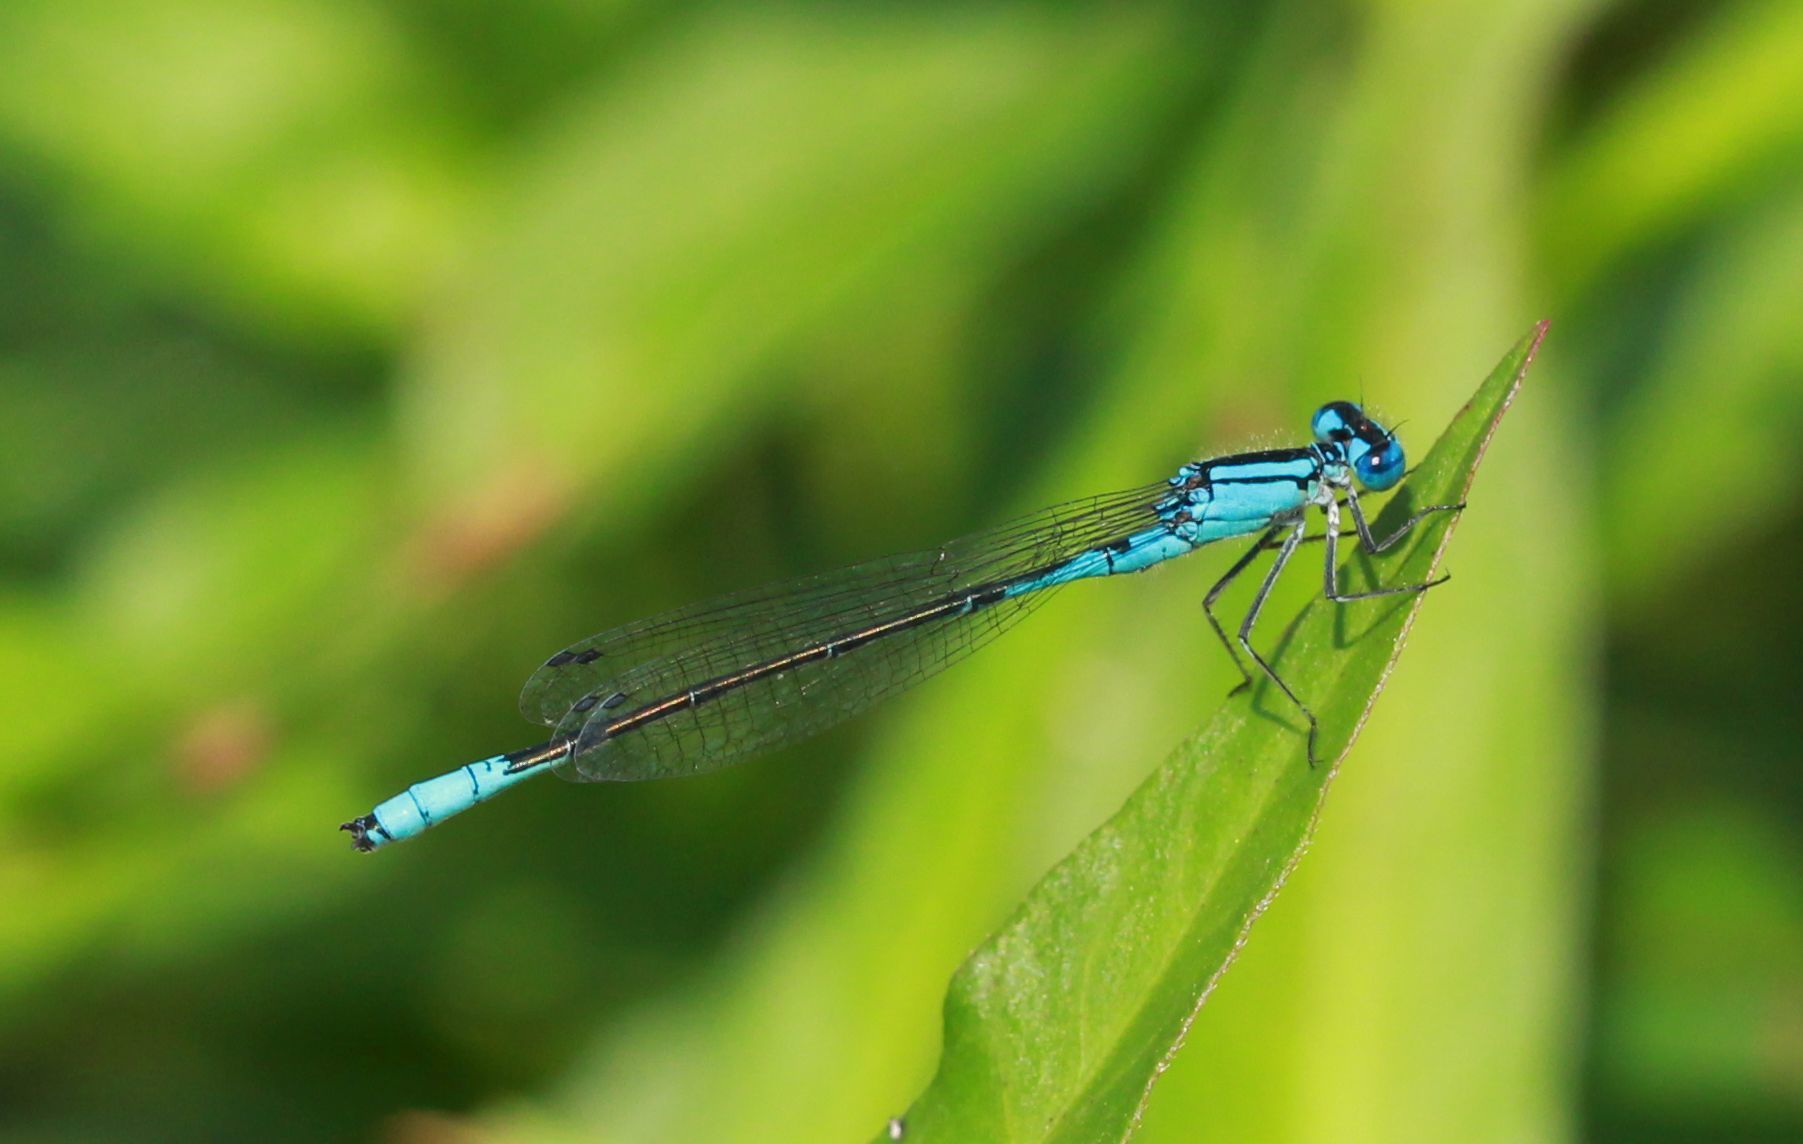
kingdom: Animalia
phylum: Arthropoda
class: Insecta
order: Odonata
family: Coenagrionidae
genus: Enallagma
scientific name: Enallagma aspersum
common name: Azure bluet
